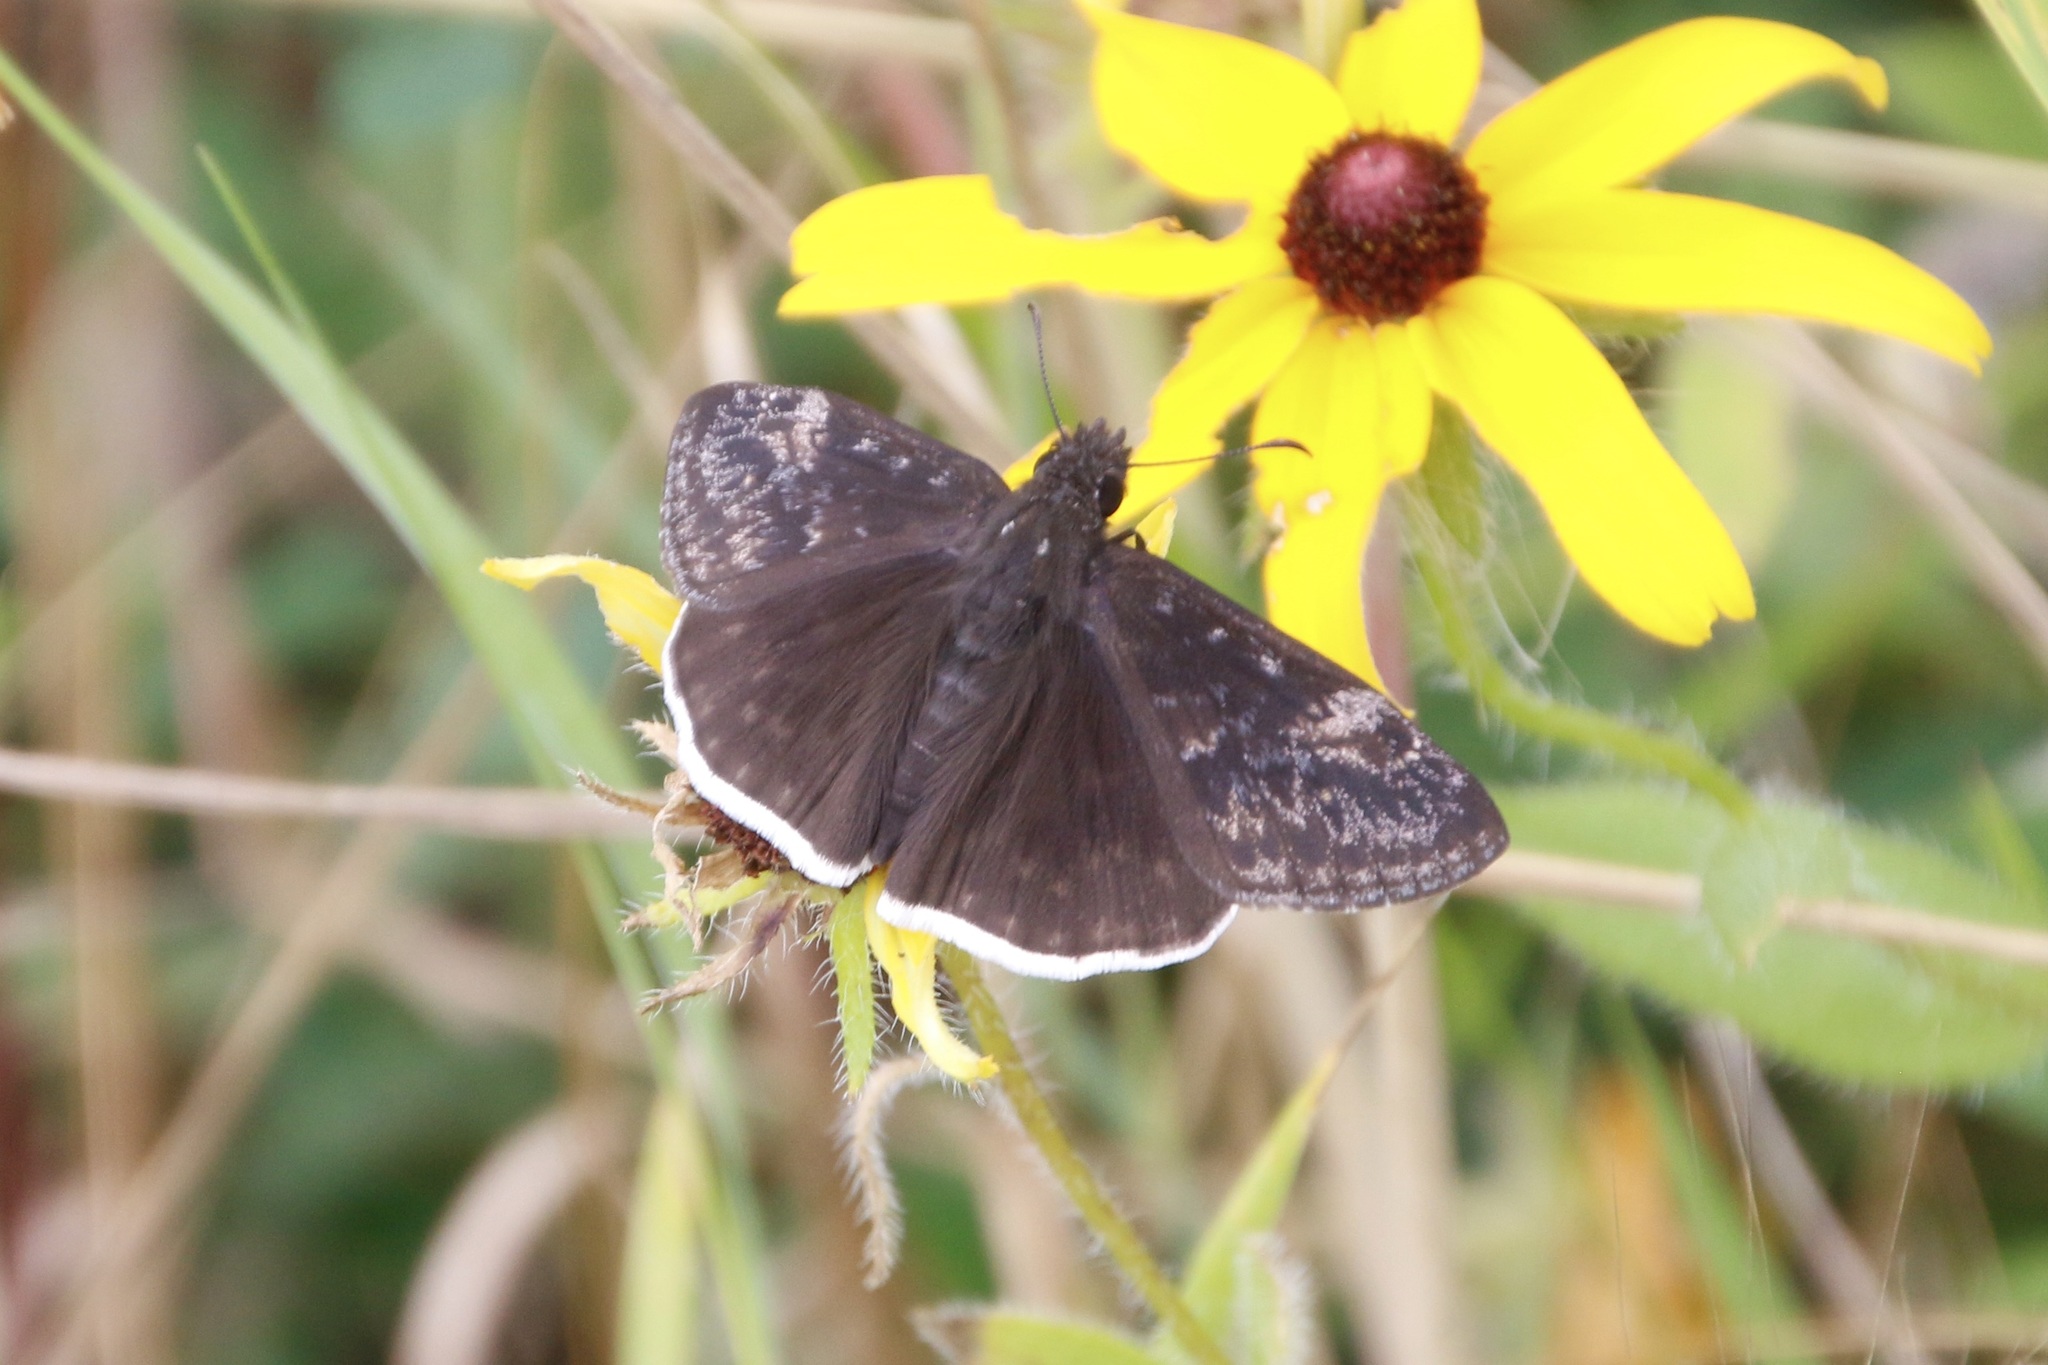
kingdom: Animalia
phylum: Arthropoda
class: Insecta
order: Lepidoptera
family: Hesperiidae
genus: Erynnis
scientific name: Erynnis funeralis
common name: Funereal duskywing
